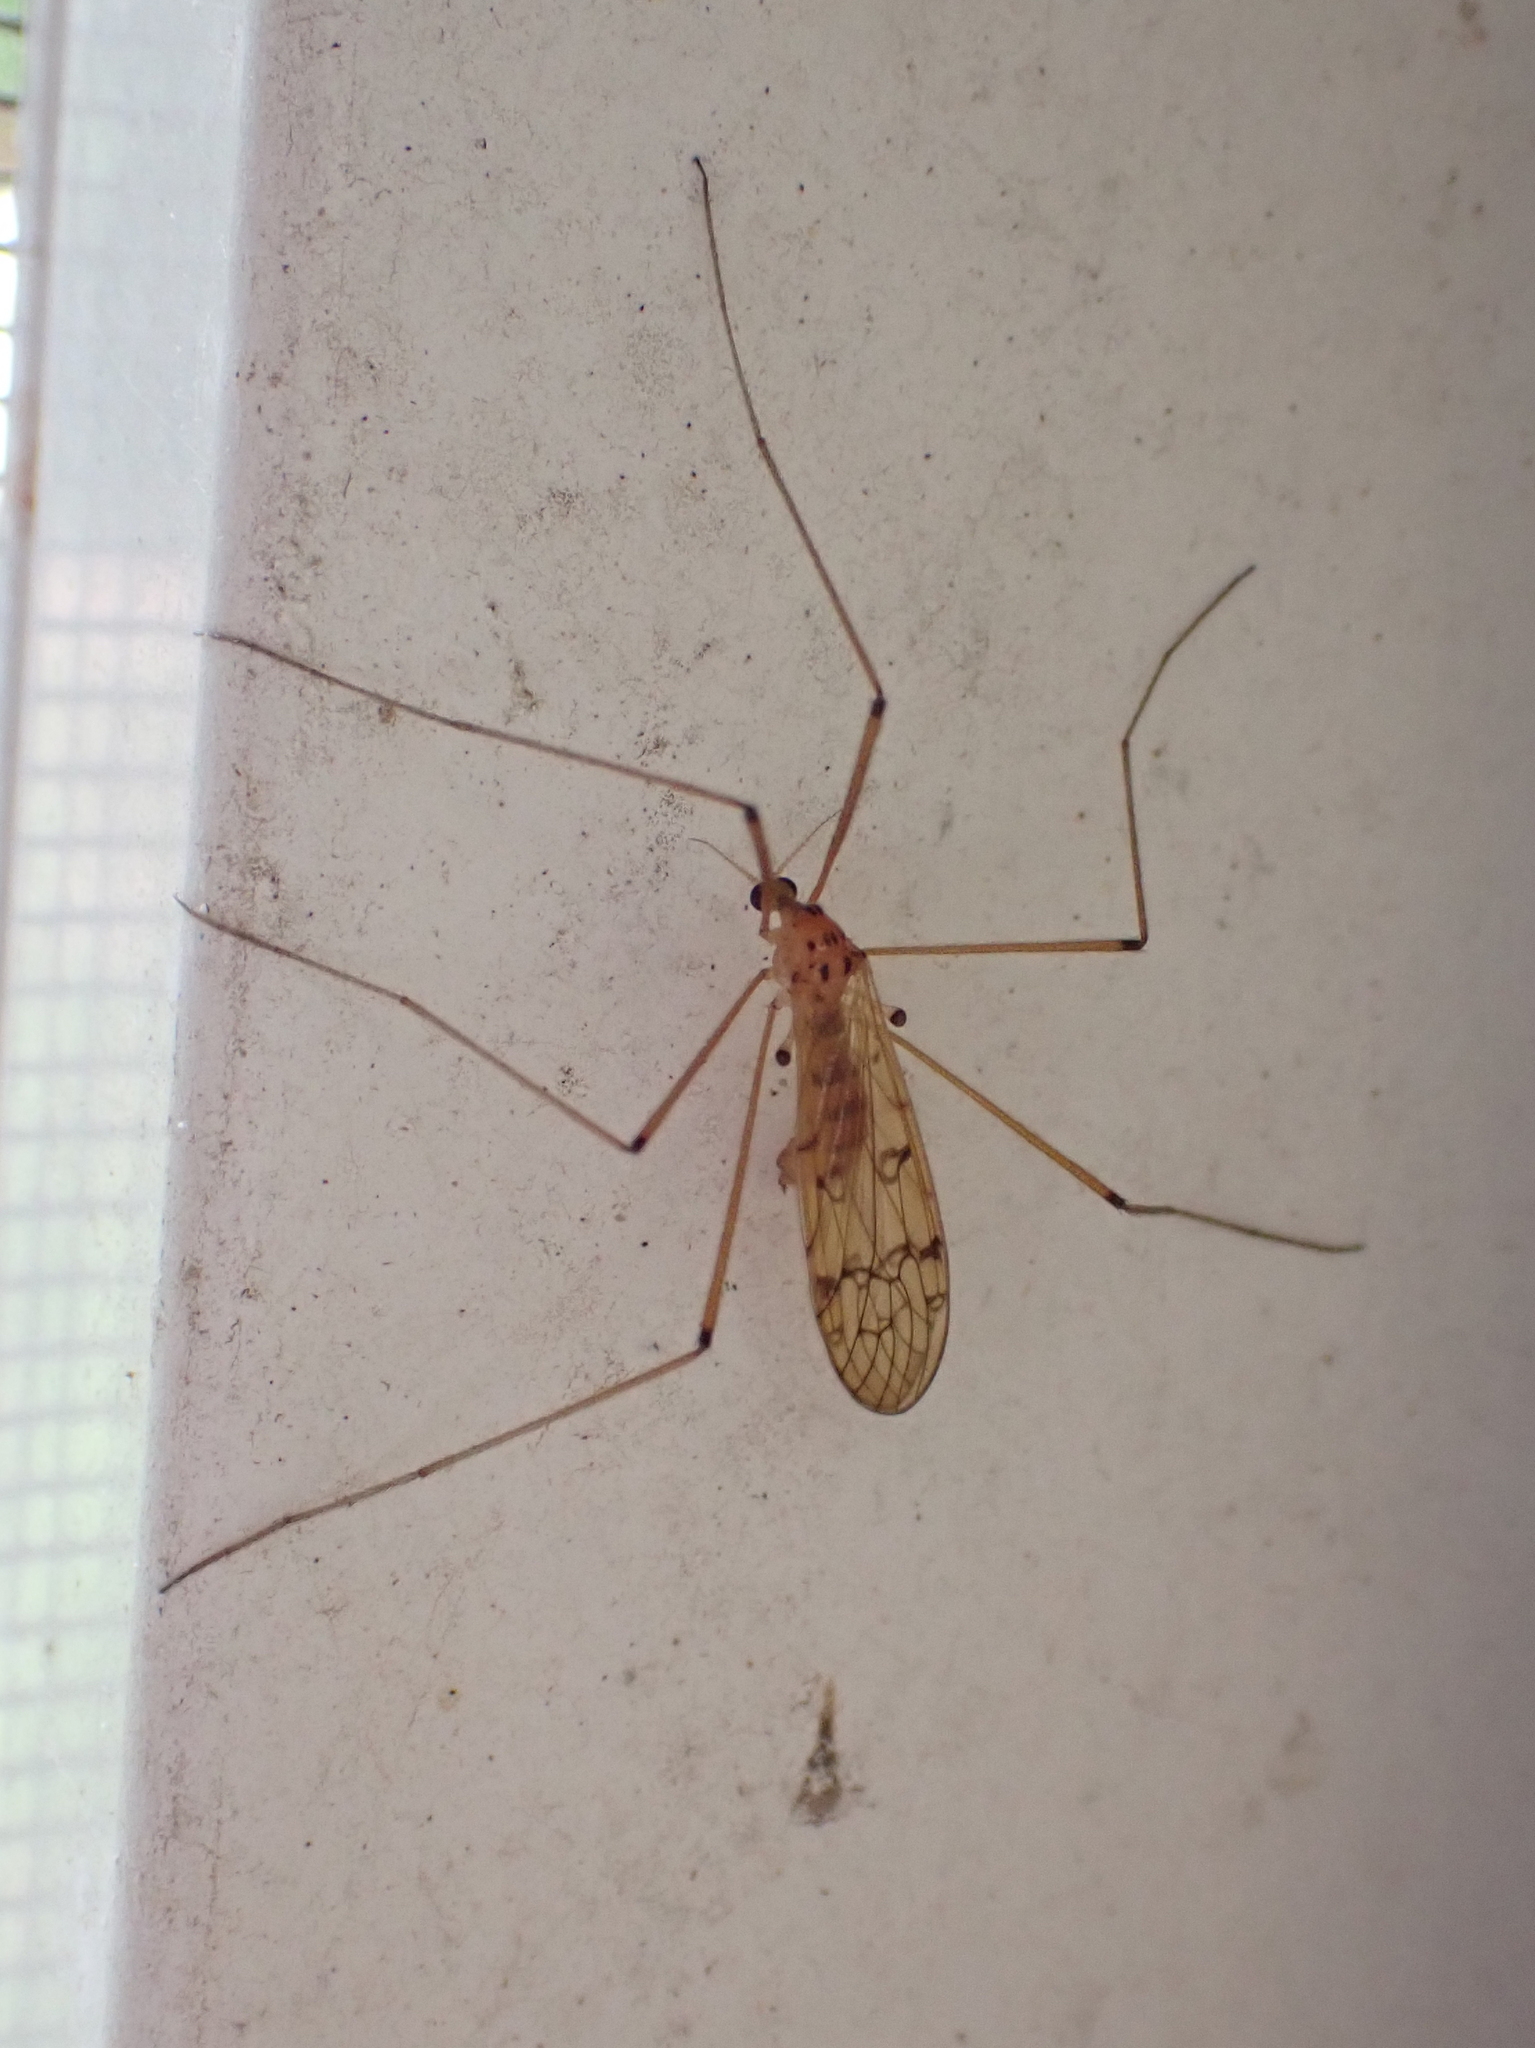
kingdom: Animalia
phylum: Arthropoda
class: Insecta
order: Diptera
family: Limoniidae
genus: Metalimnobia
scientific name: Metalimnobia triocellata
